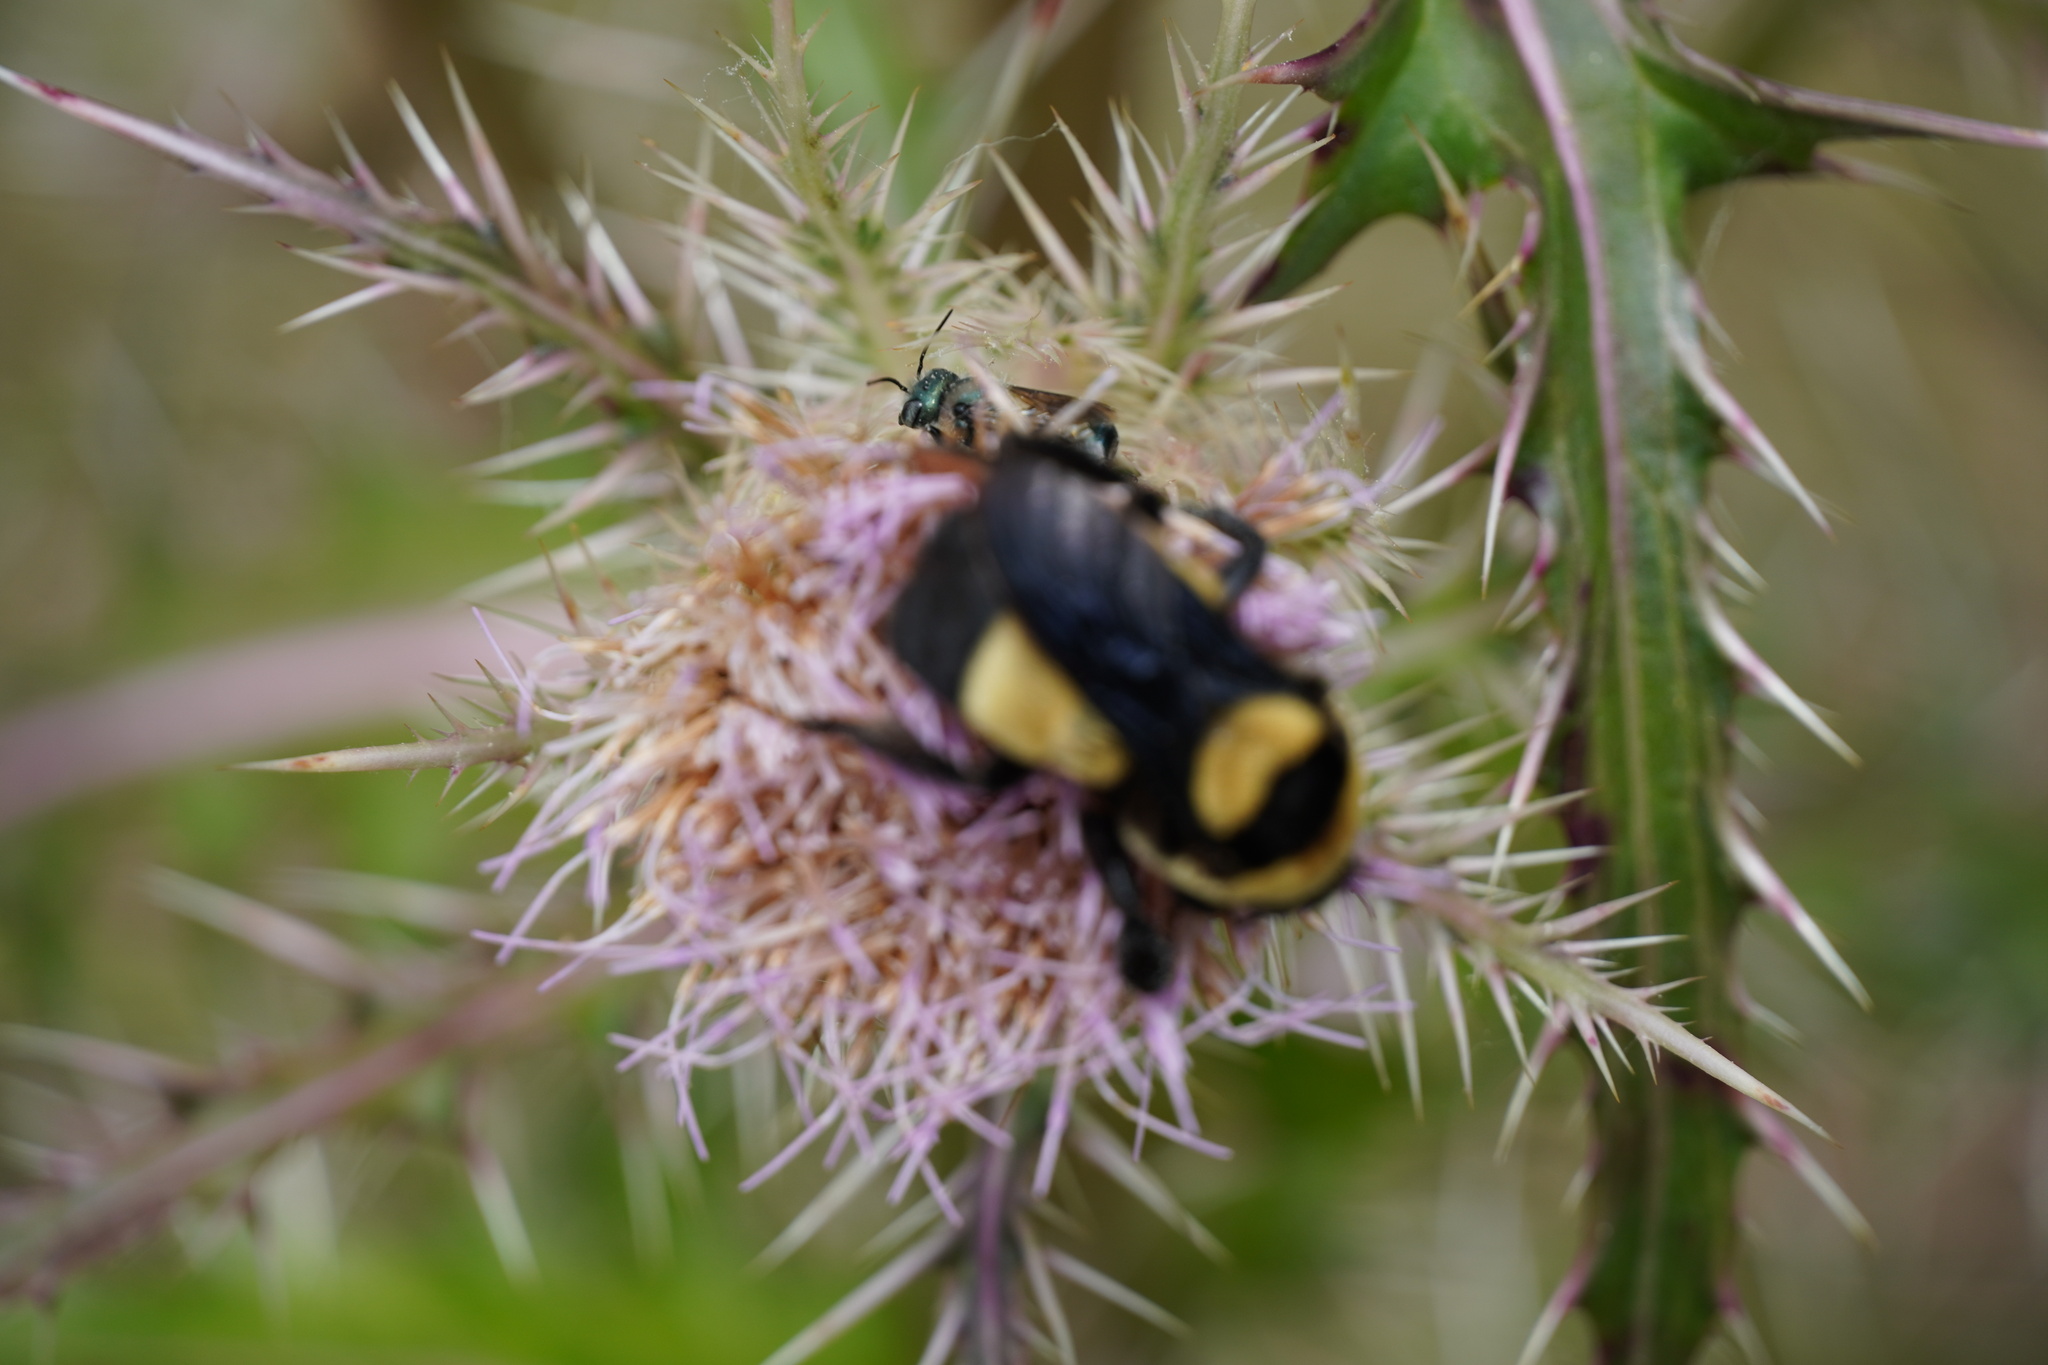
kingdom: Animalia
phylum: Arthropoda
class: Insecta
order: Hymenoptera
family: Apidae
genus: Bombus
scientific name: Bombus fraternus
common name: Southern plains bumble bee
